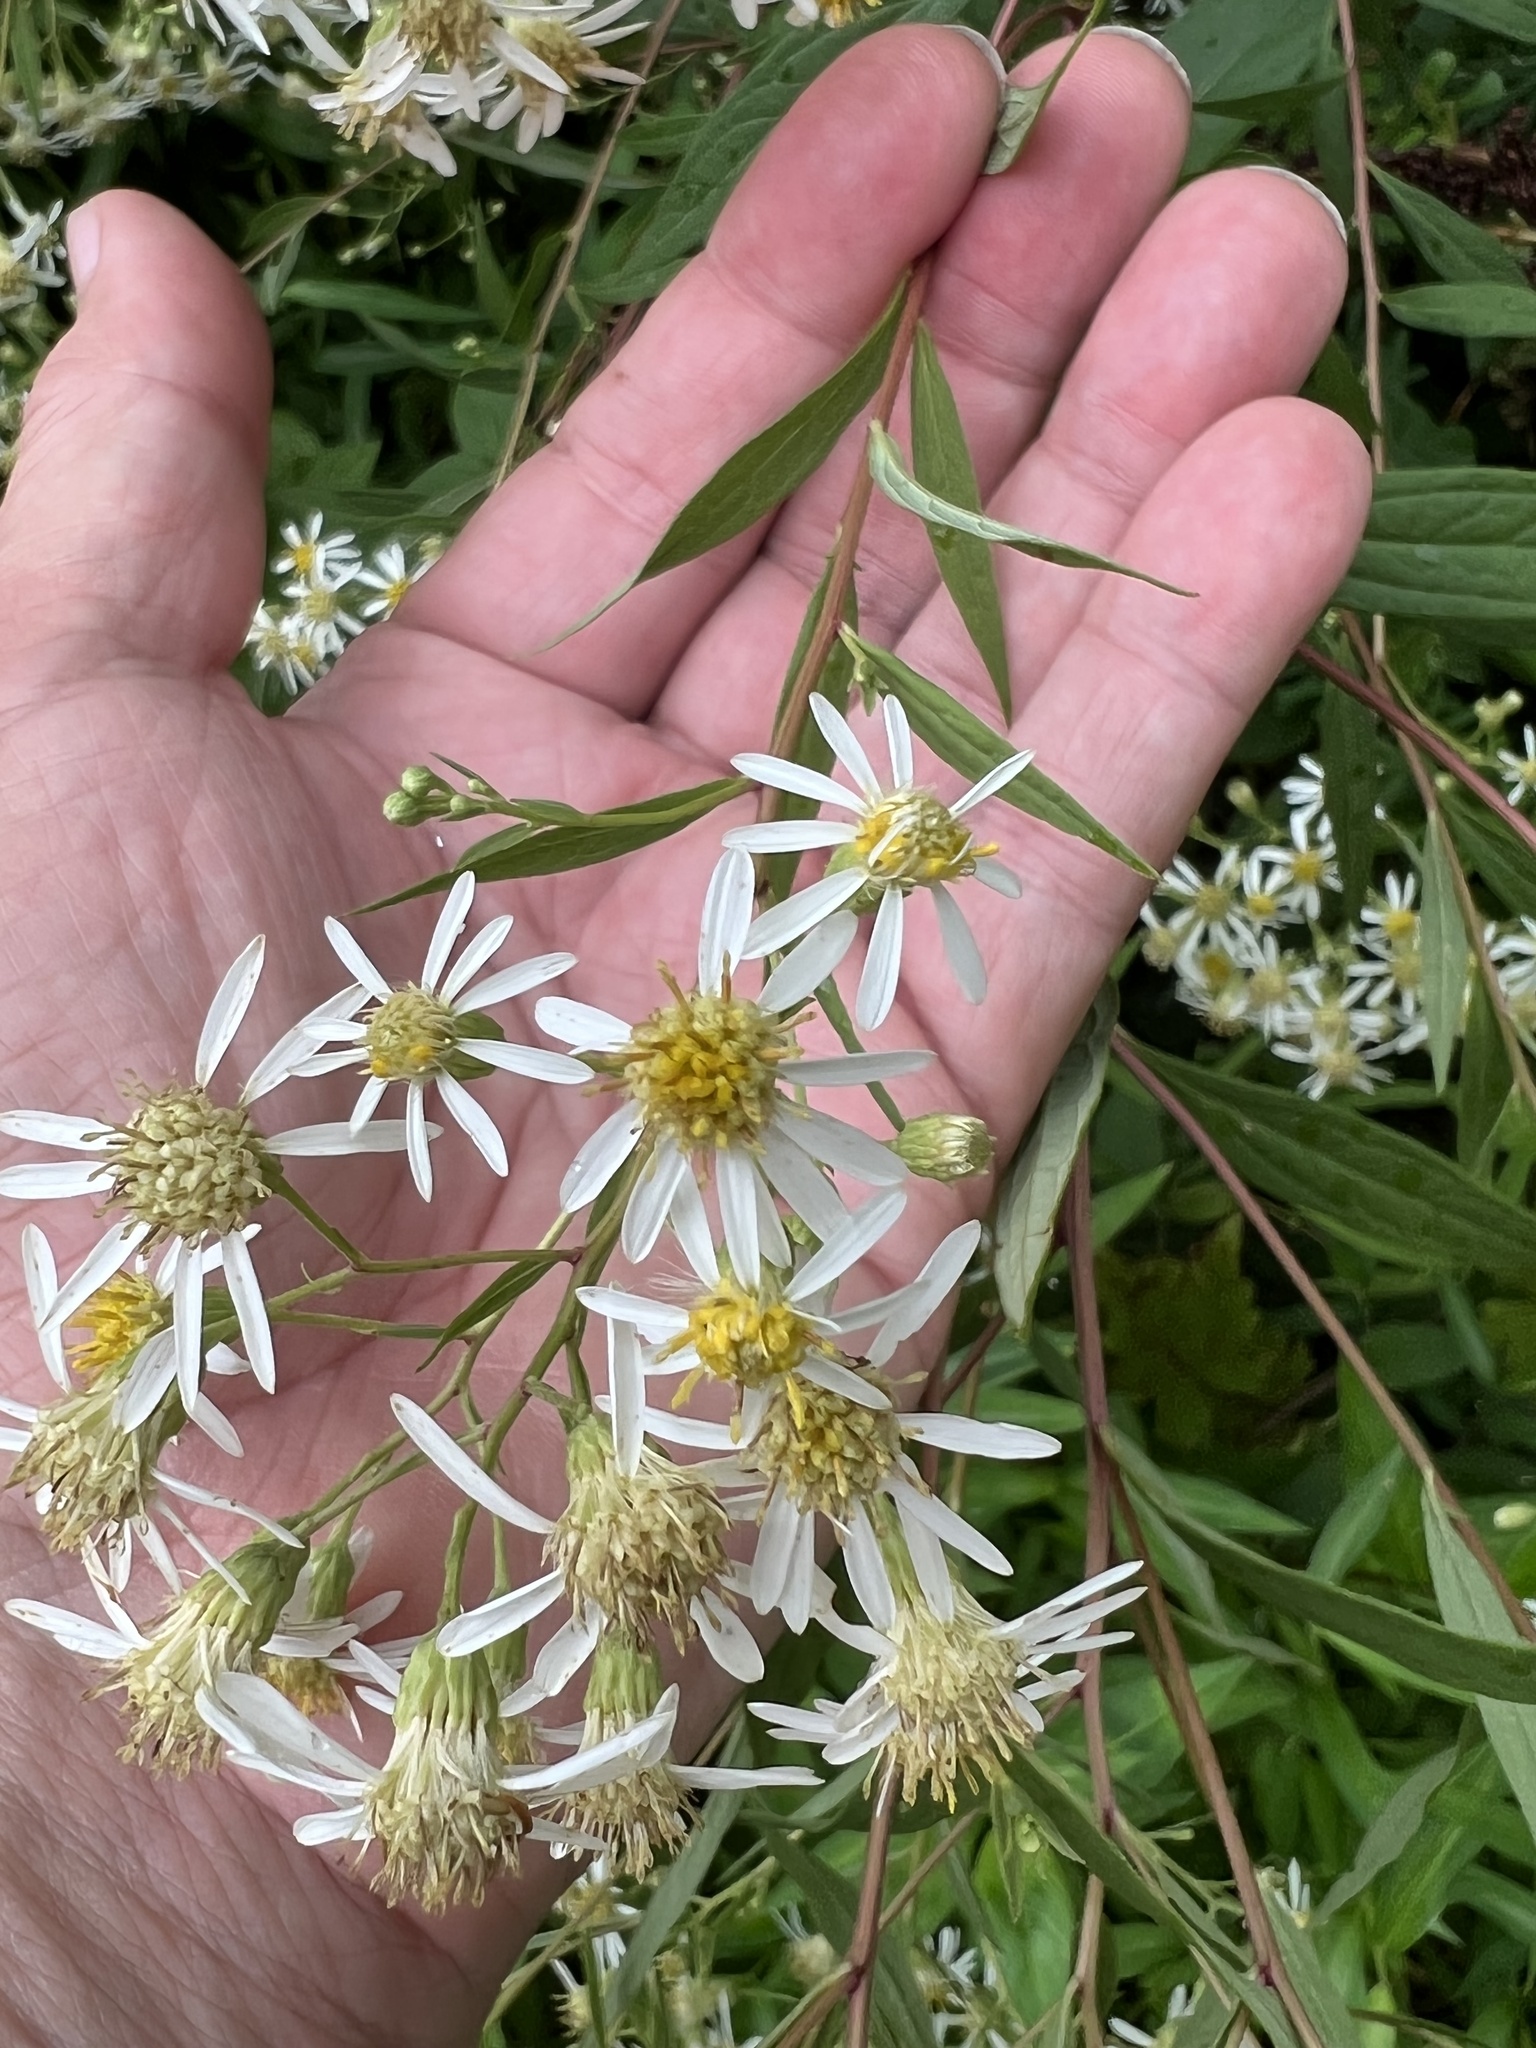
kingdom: Plantae
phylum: Tracheophyta
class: Magnoliopsida
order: Asterales
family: Asteraceae
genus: Doellingeria
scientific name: Doellingeria umbellata
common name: Flat-top white aster
